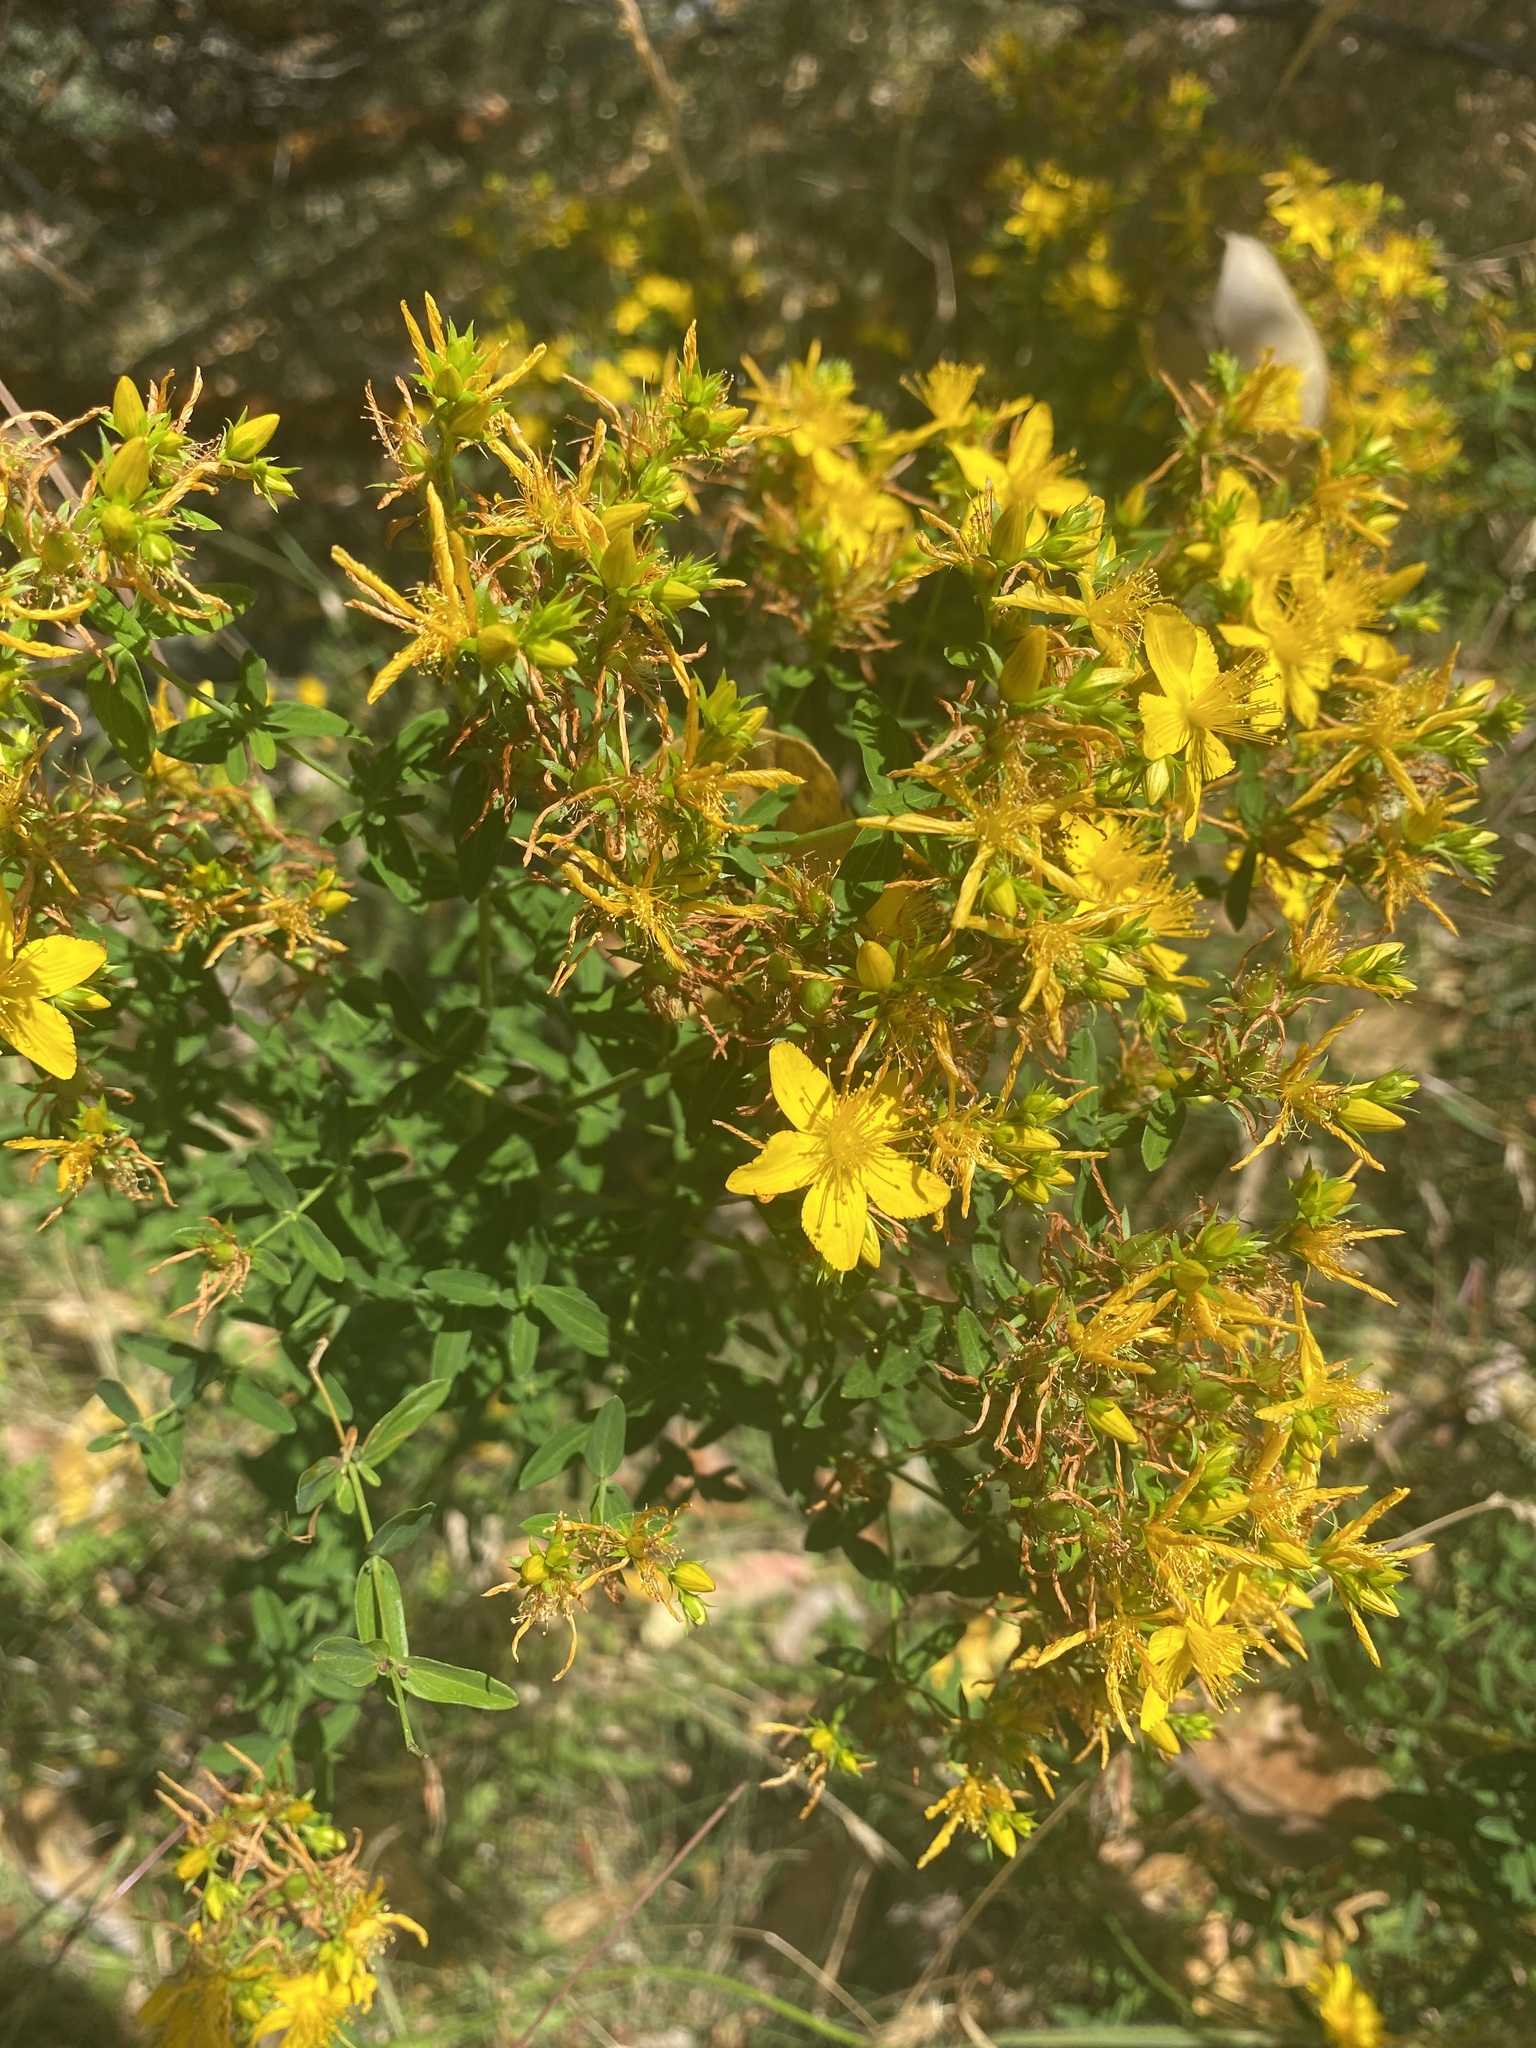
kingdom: Plantae
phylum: Tracheophyta
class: Magnoliopsida
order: Malpighiales
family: Hypericaceae
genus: Hypericum
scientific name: Hypericum perforatum
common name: Common st. johnswort
